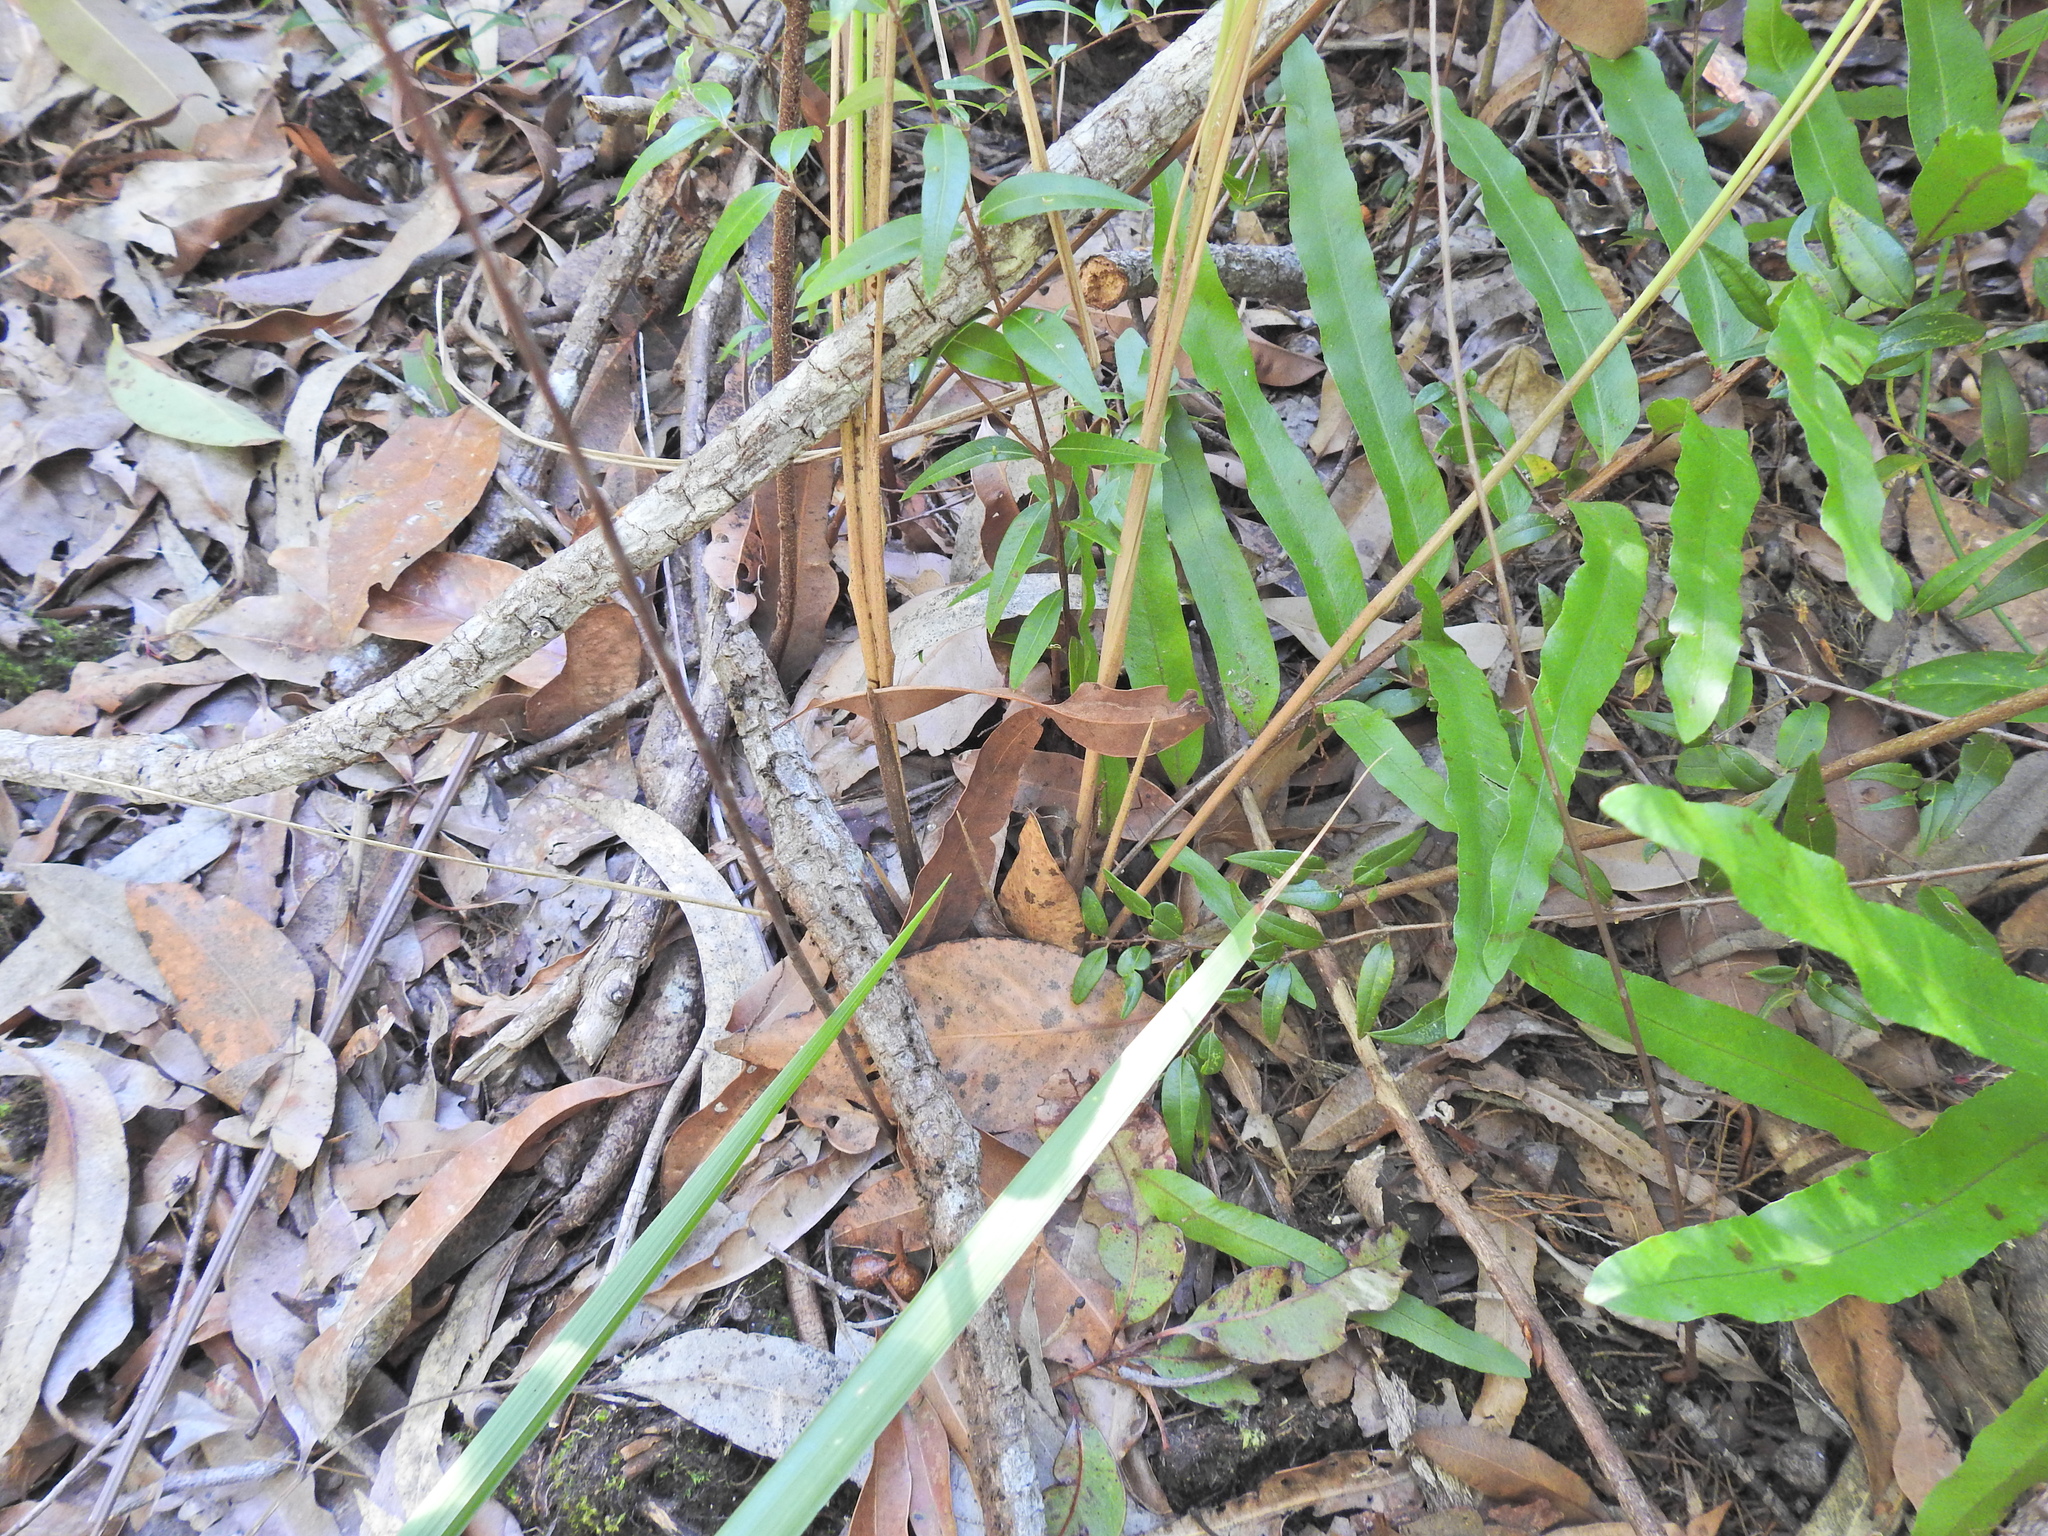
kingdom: Plantae
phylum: Tracheophyta
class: Liliopsida
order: Poales
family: Poaceae
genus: Imperata
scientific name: Imperata cylindrica
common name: Cogongrass
